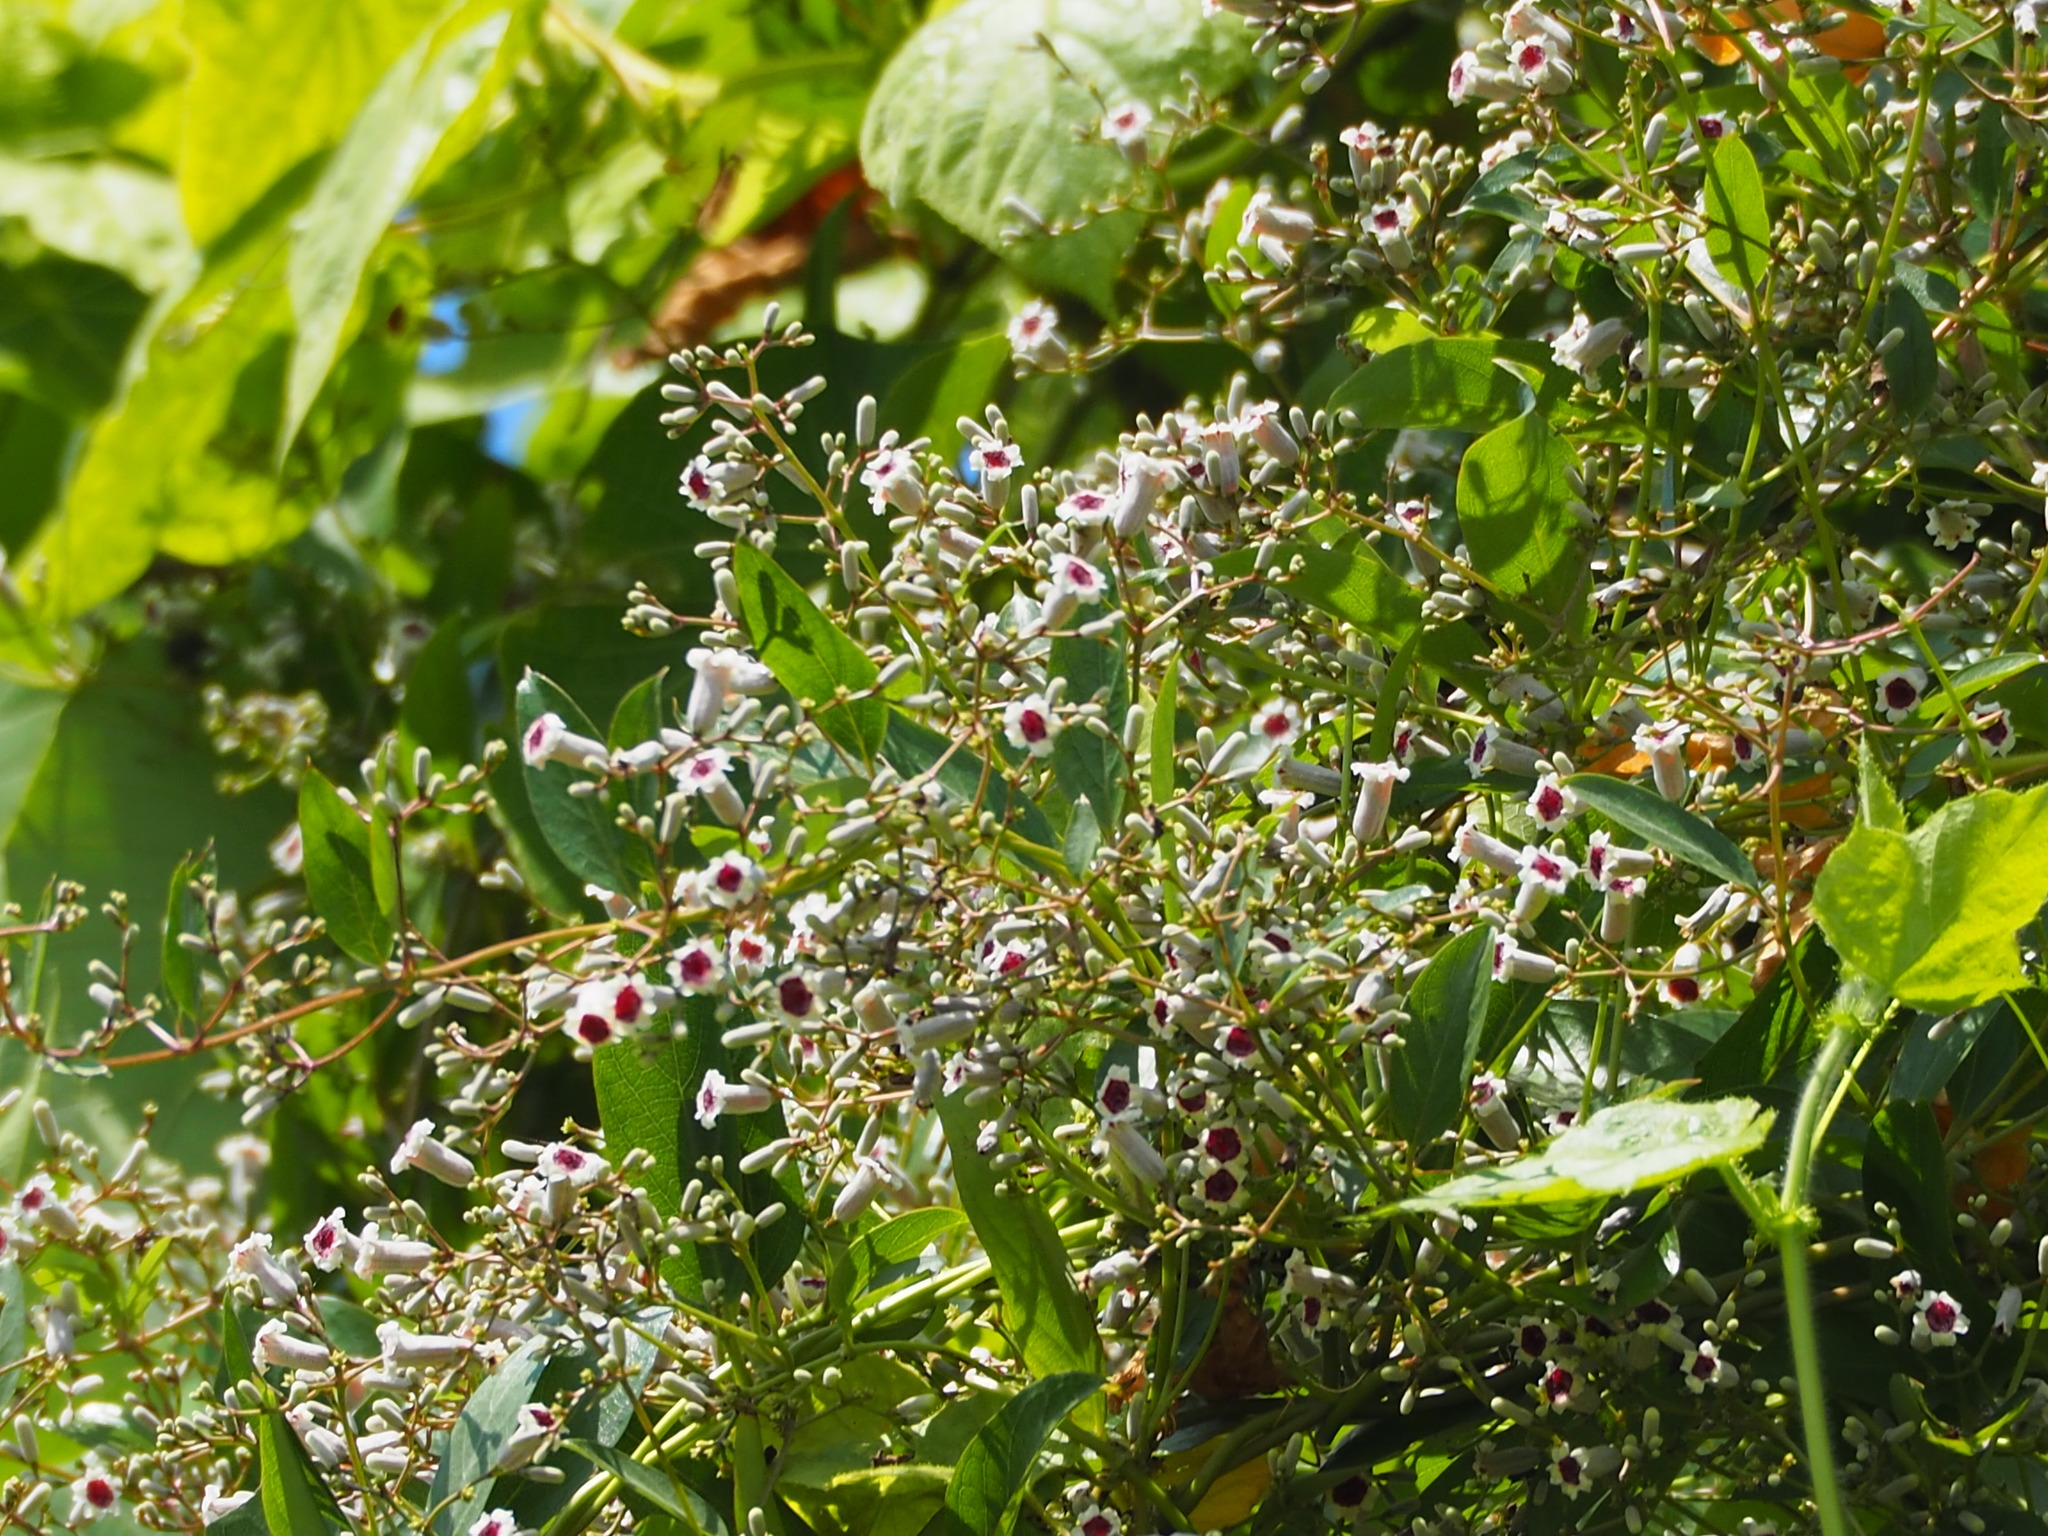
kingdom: Plantae
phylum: Tracheophyta
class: Magnoliopsida
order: Gentianales
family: Rubiaceae
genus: Paederia
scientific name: Paederia foetida
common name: Stinkvine
